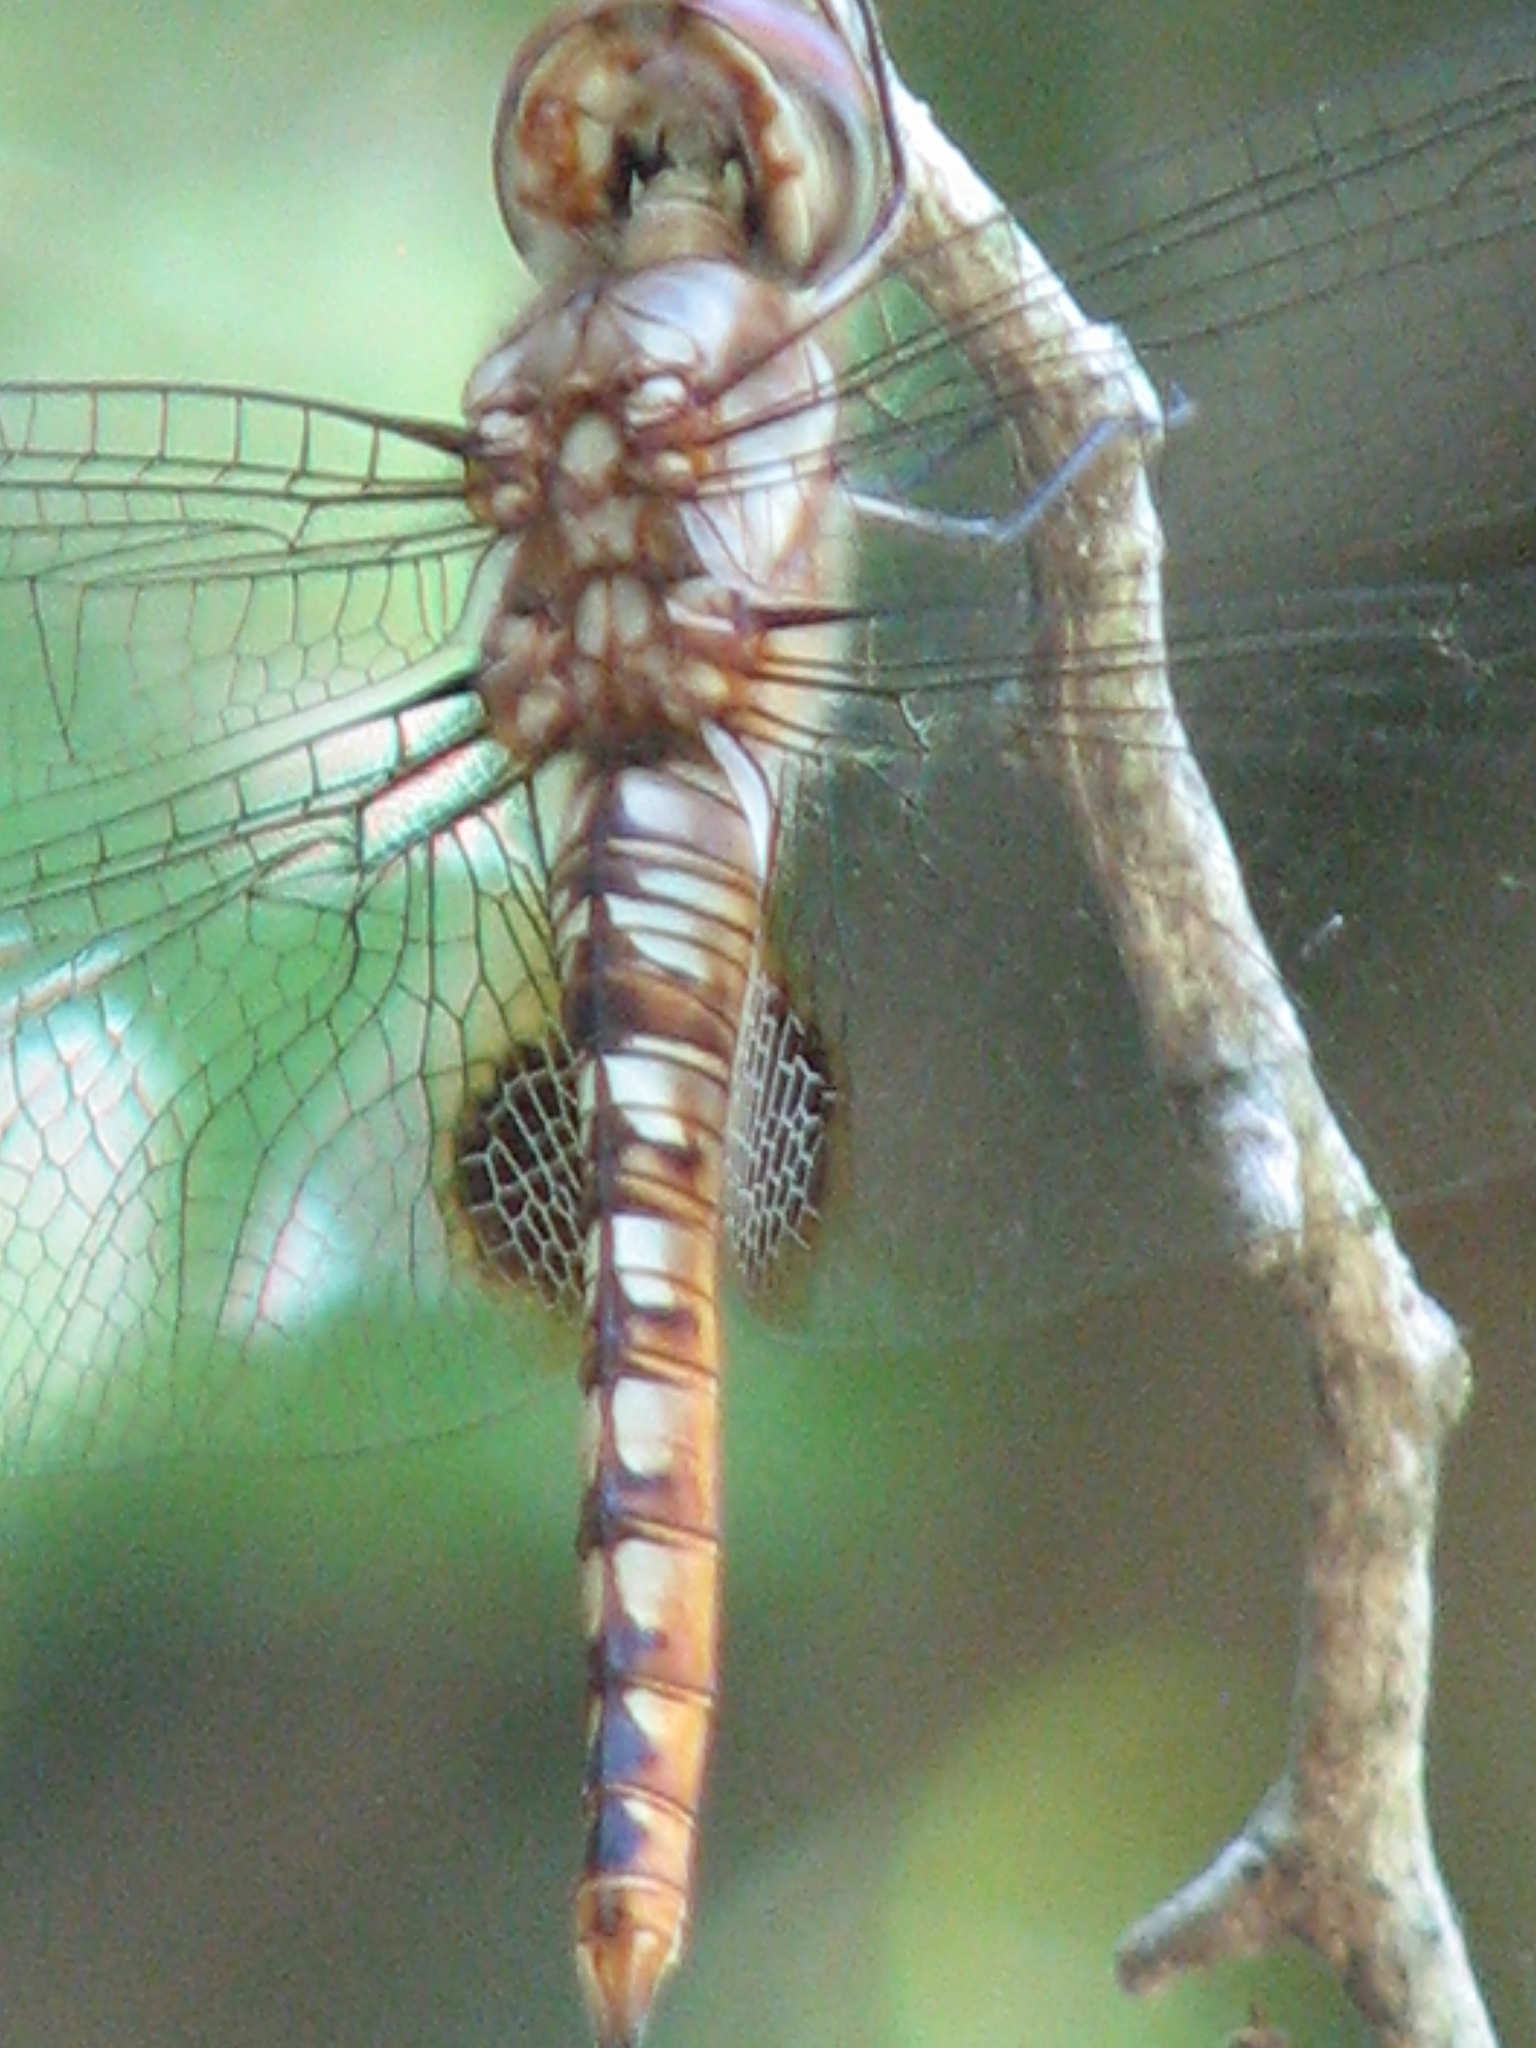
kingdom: Animalia
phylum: Arthropoda
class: Insecta
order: Odonata
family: Libellulidae
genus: Pantala
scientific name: Pantala hymenaea
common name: Spot-winged glider
